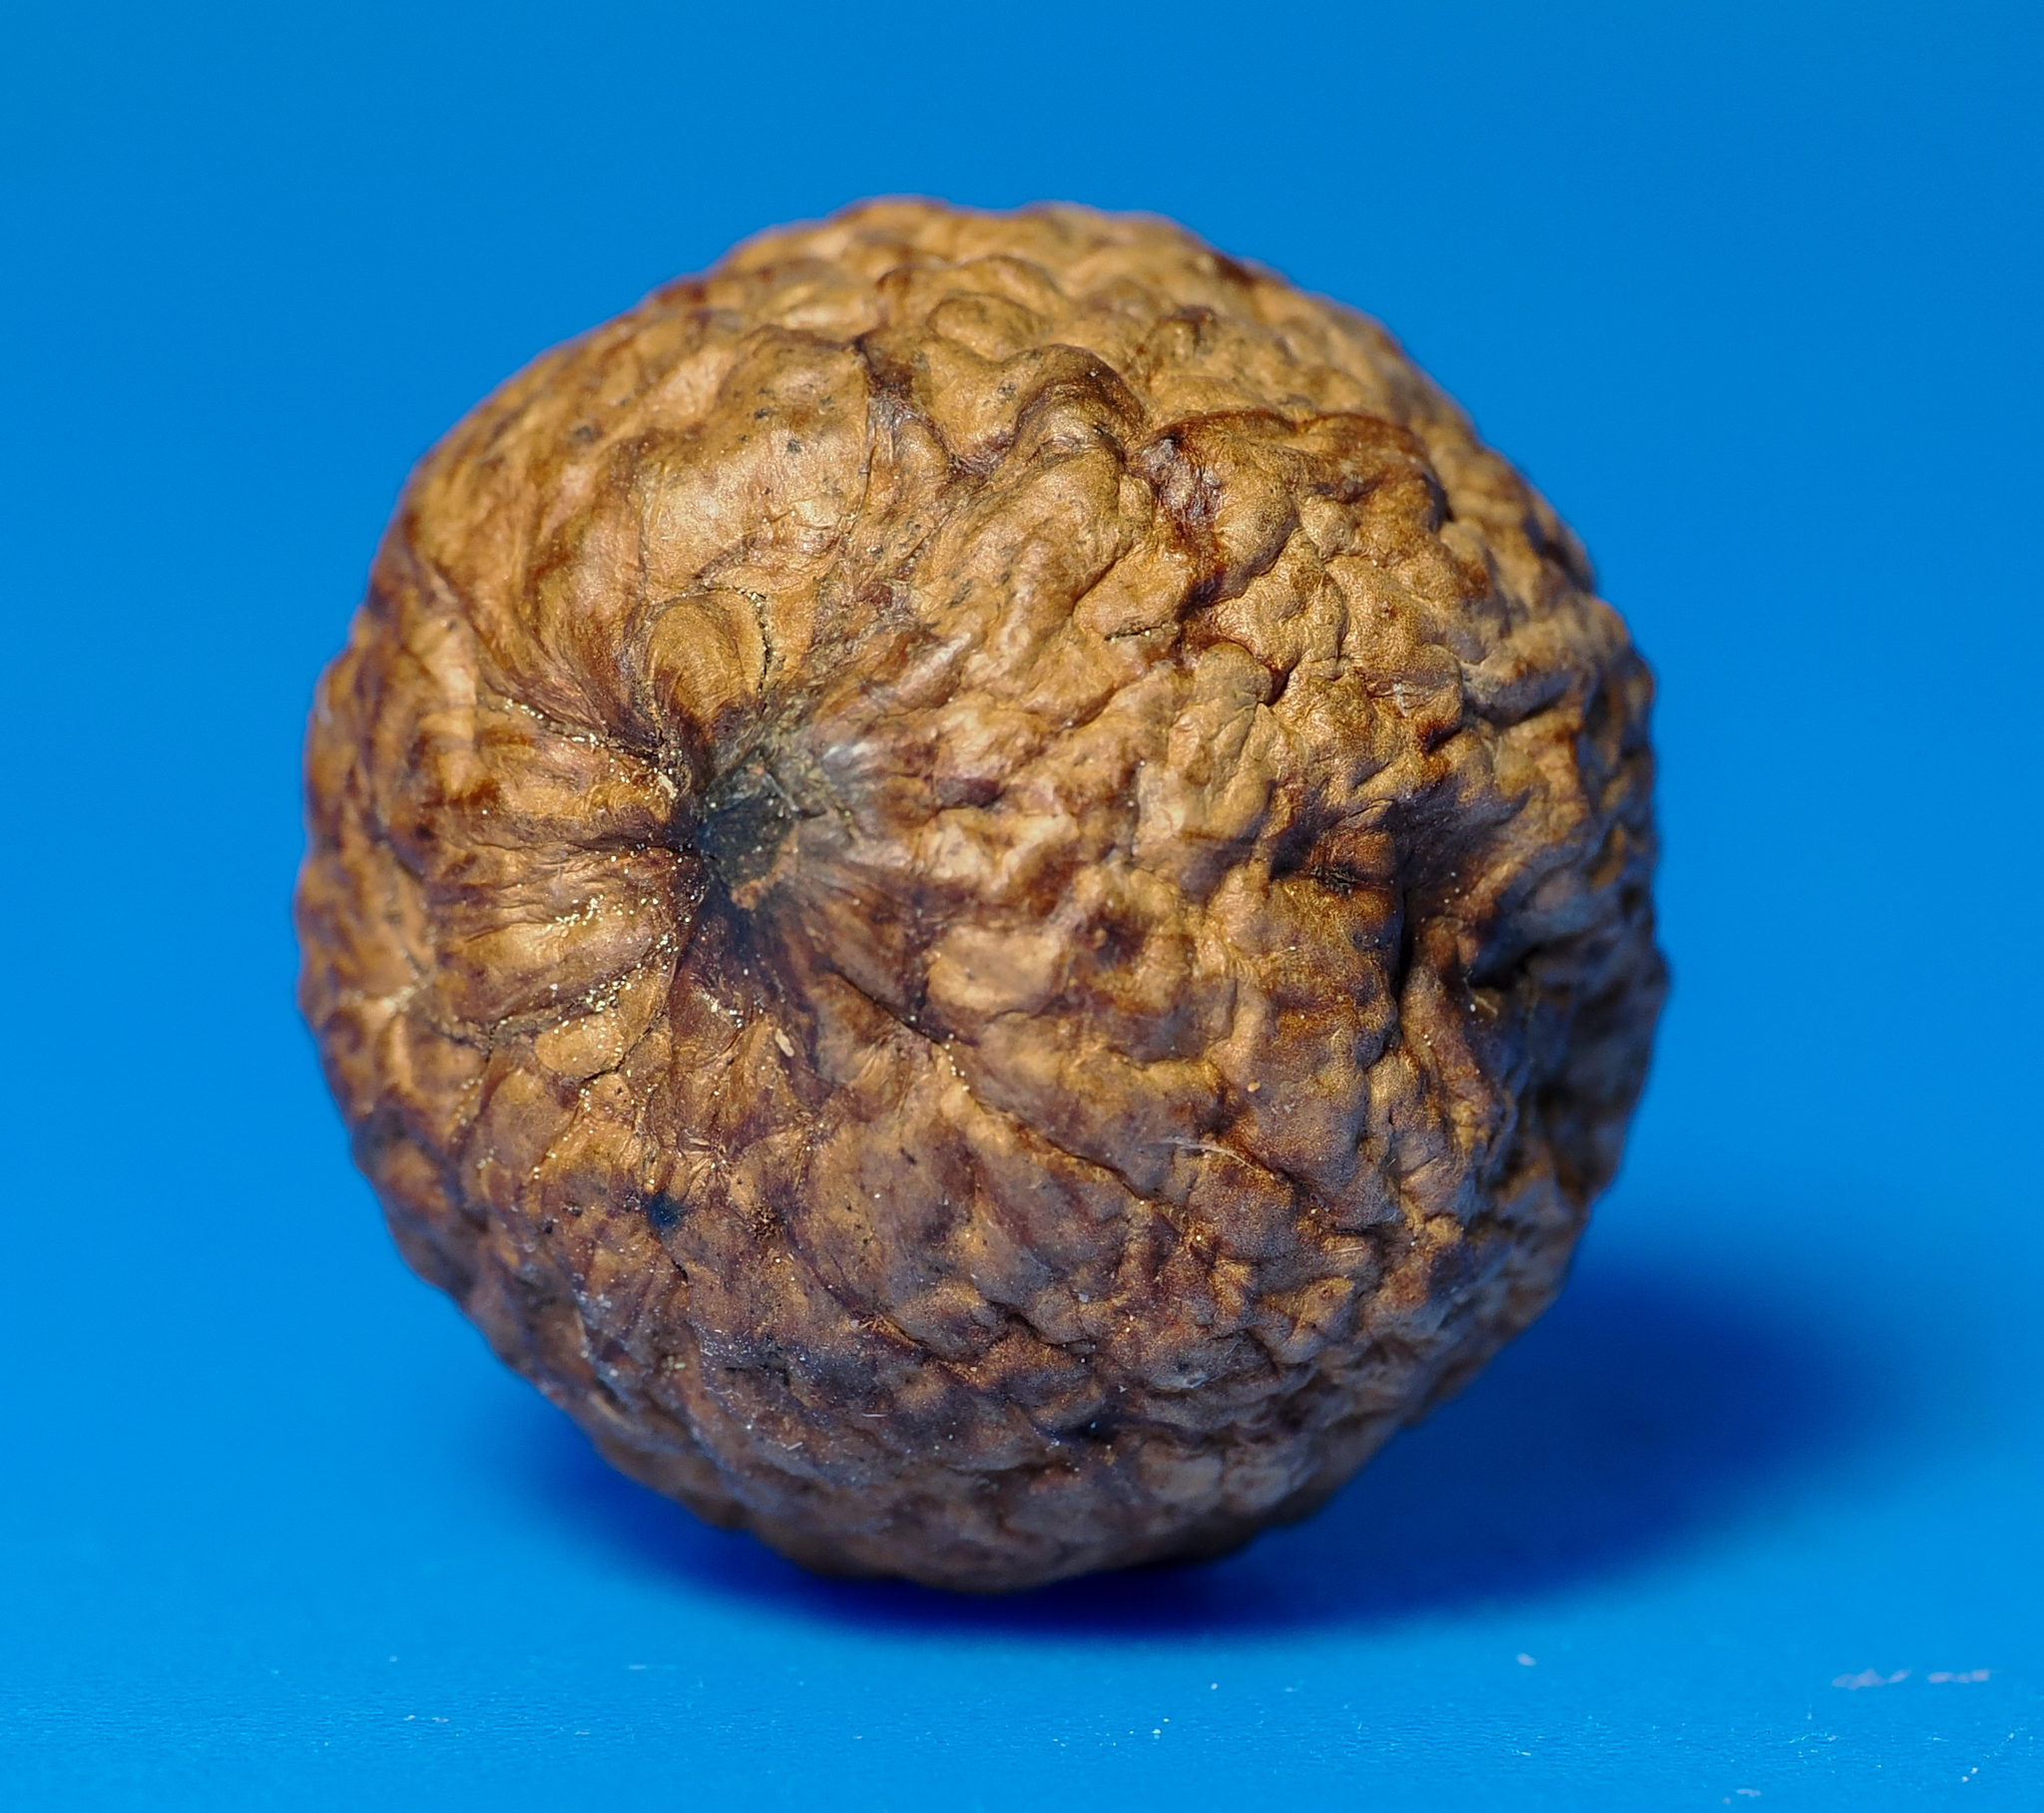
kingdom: Animalia
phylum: Arthropoda
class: Insecta
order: Hymenoptera
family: Cynipidae
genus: Amphibolips
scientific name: Amphibolips
